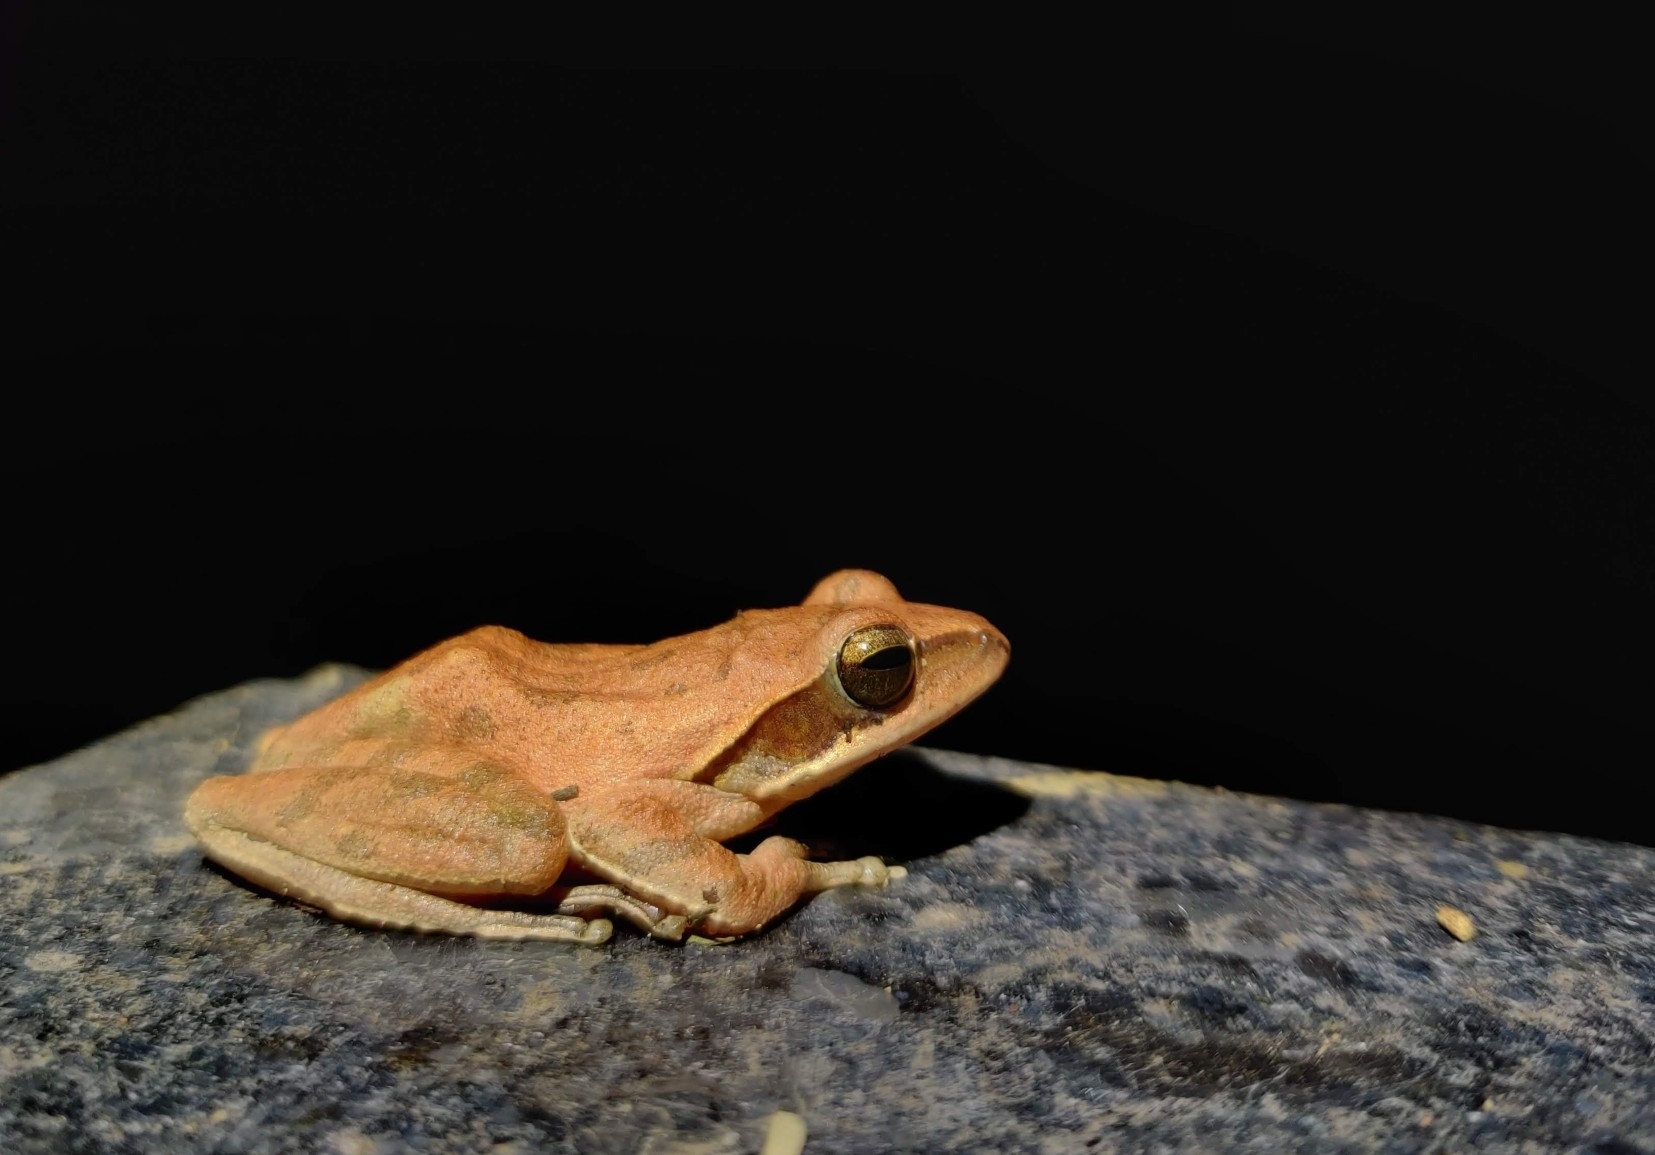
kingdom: Animalia
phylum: Chordata
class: Amphibia
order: Anura
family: Rhacophoridae
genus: Polypedates
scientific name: Polypedates maculatus
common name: Himalayan tree frog
